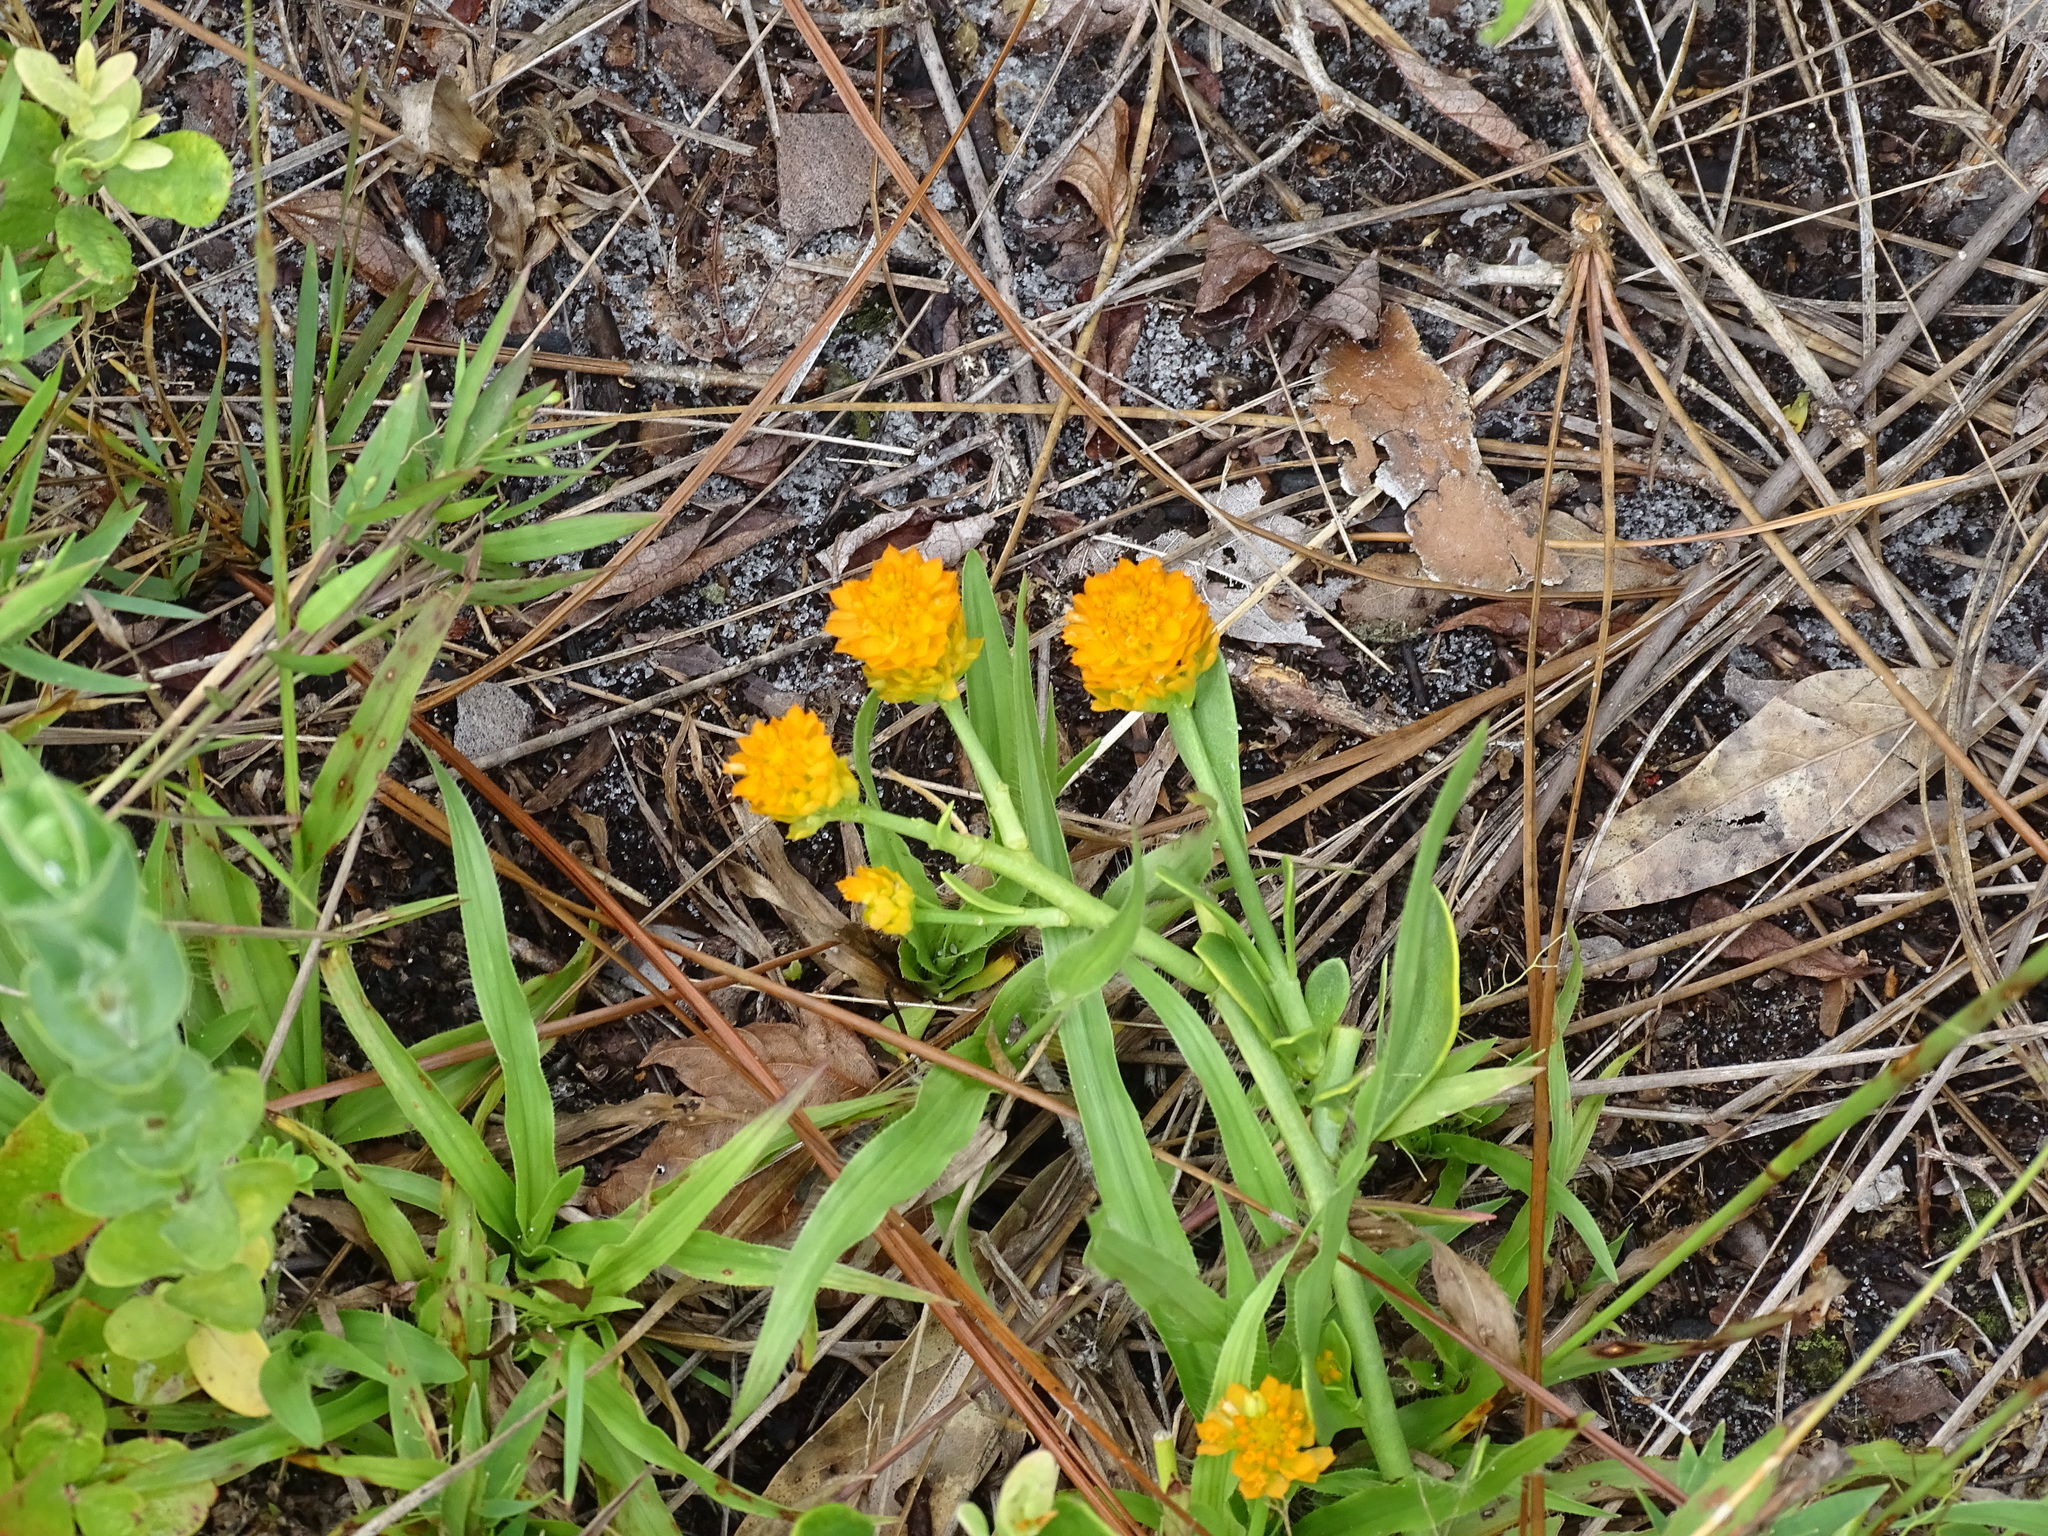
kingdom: Plantae
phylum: Tracheophyta
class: Magnoliopsida
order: Fabales
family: Polygalaceae
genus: Polygala
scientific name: Polygala lutea
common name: Orange milkwort
